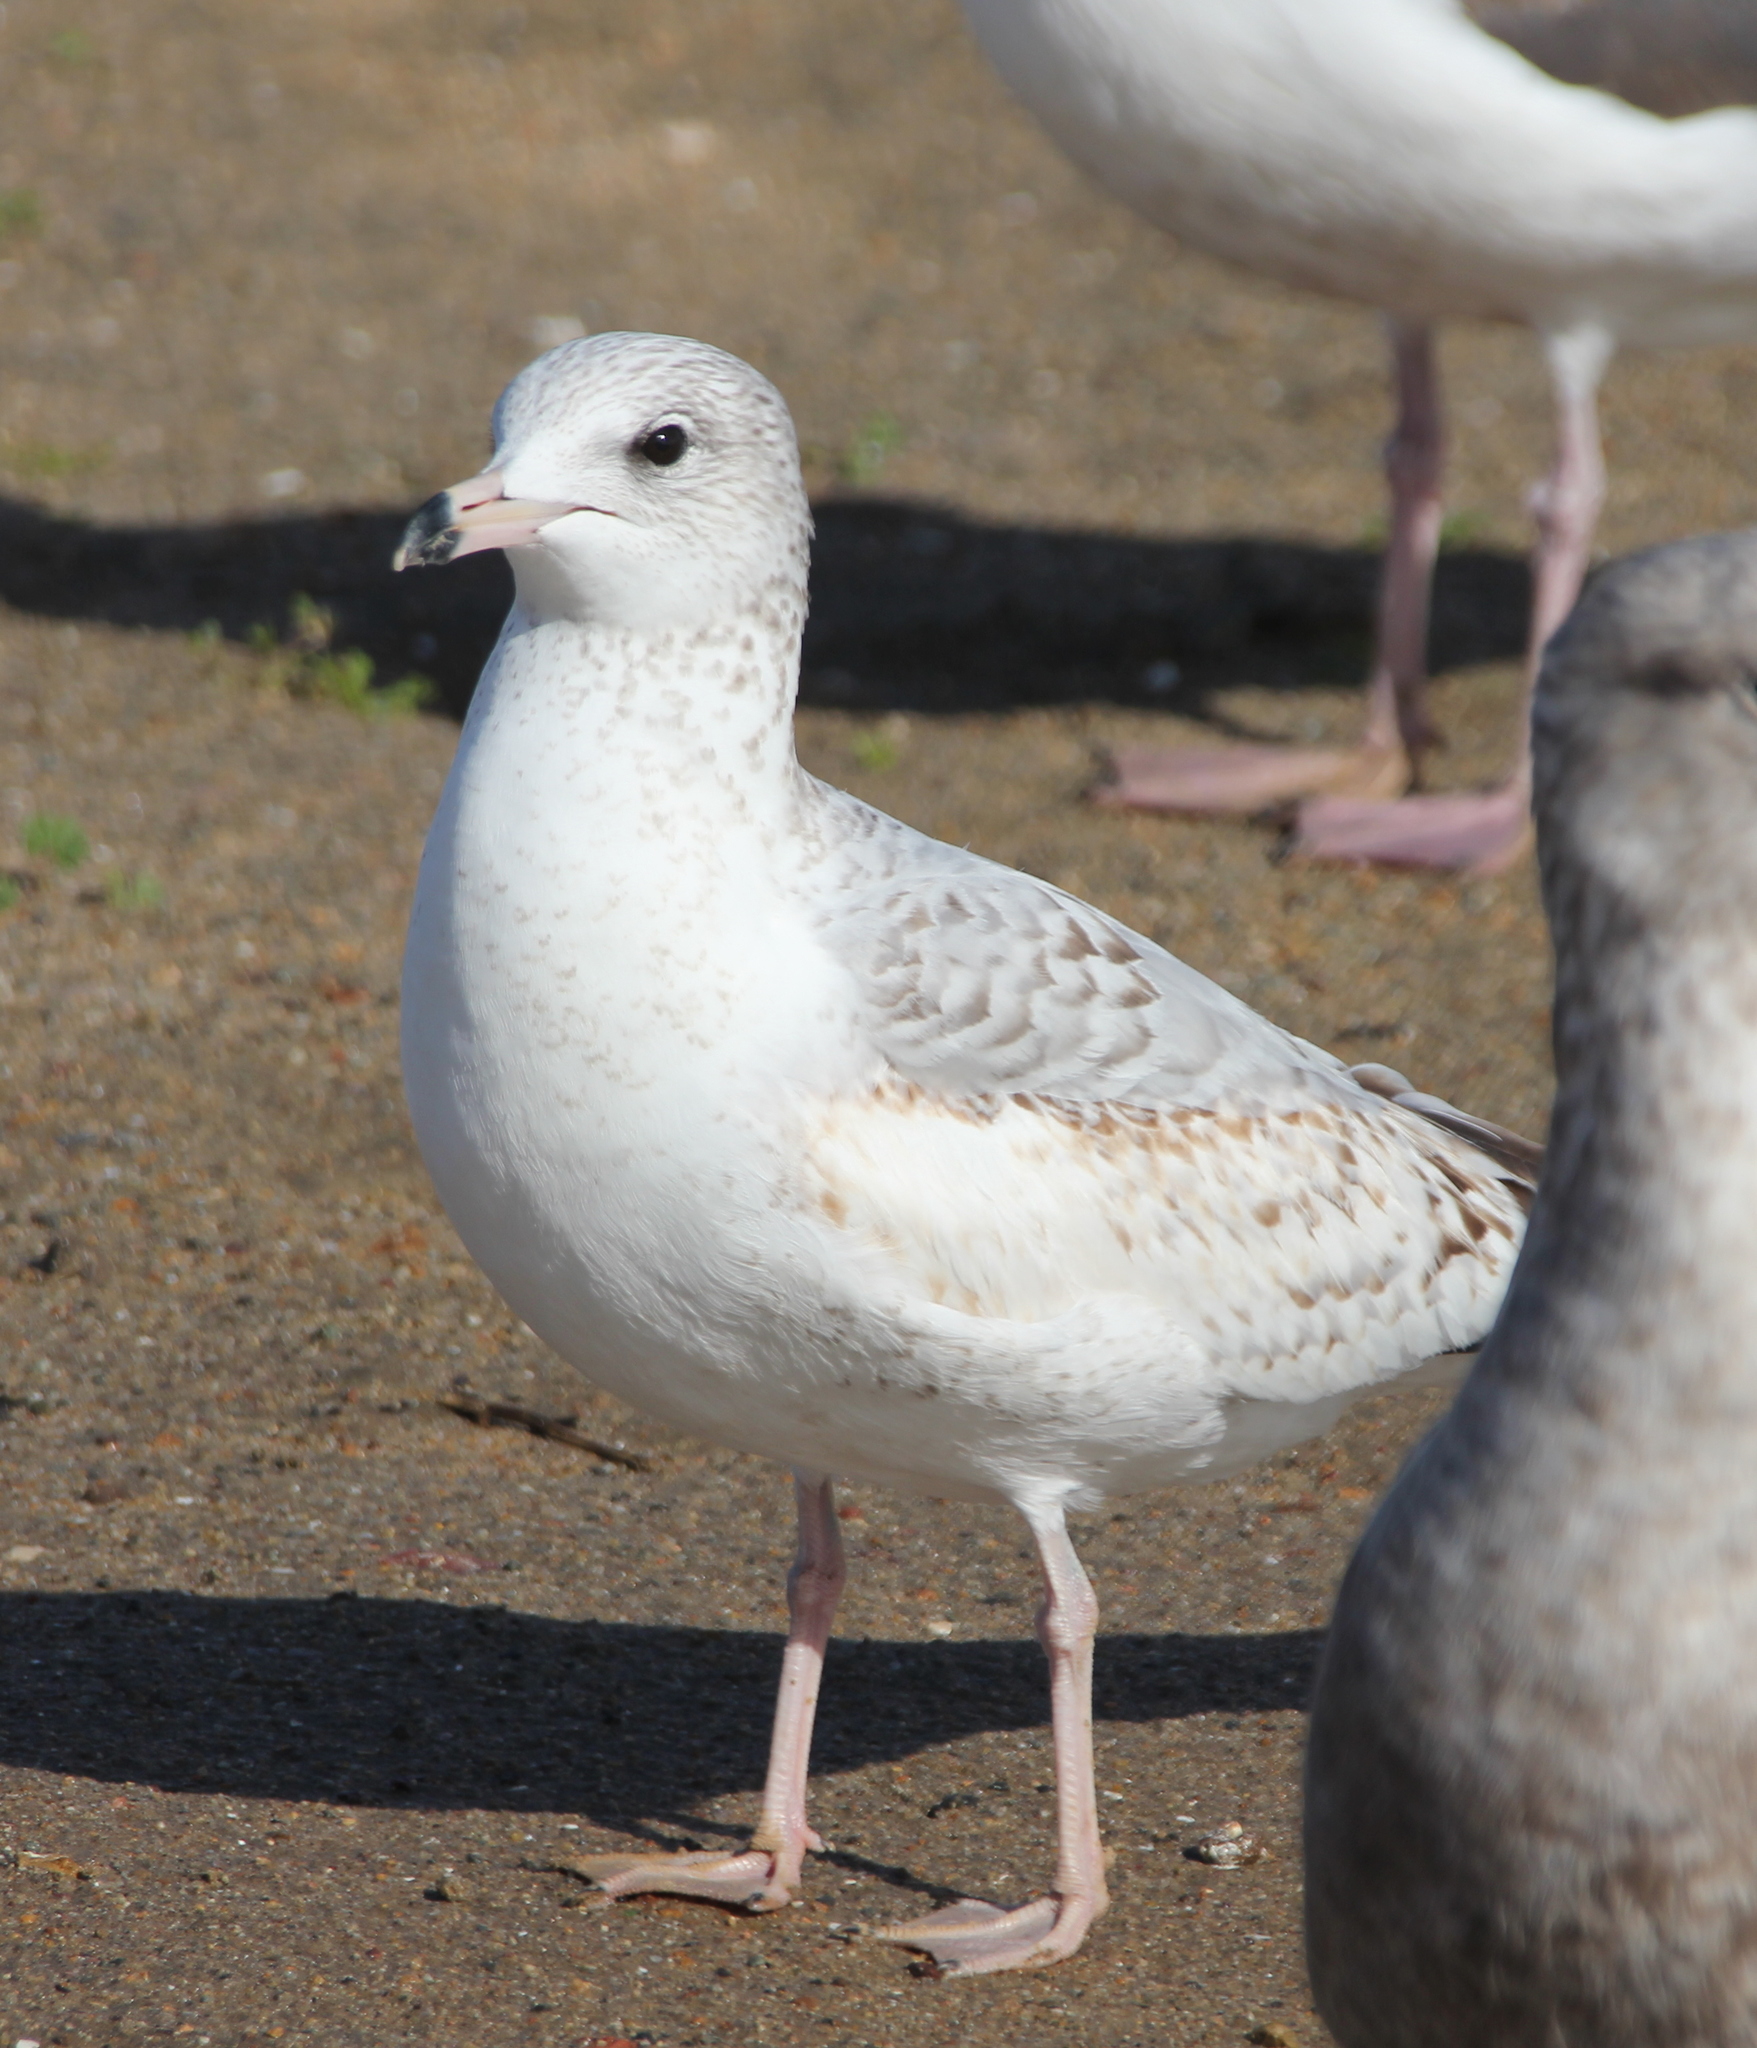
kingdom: Animalia
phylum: Chordata
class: Aves
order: Charadriiformes
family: Laridae
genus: Larus
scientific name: Larus delawarensis
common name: Ring-billed gull
